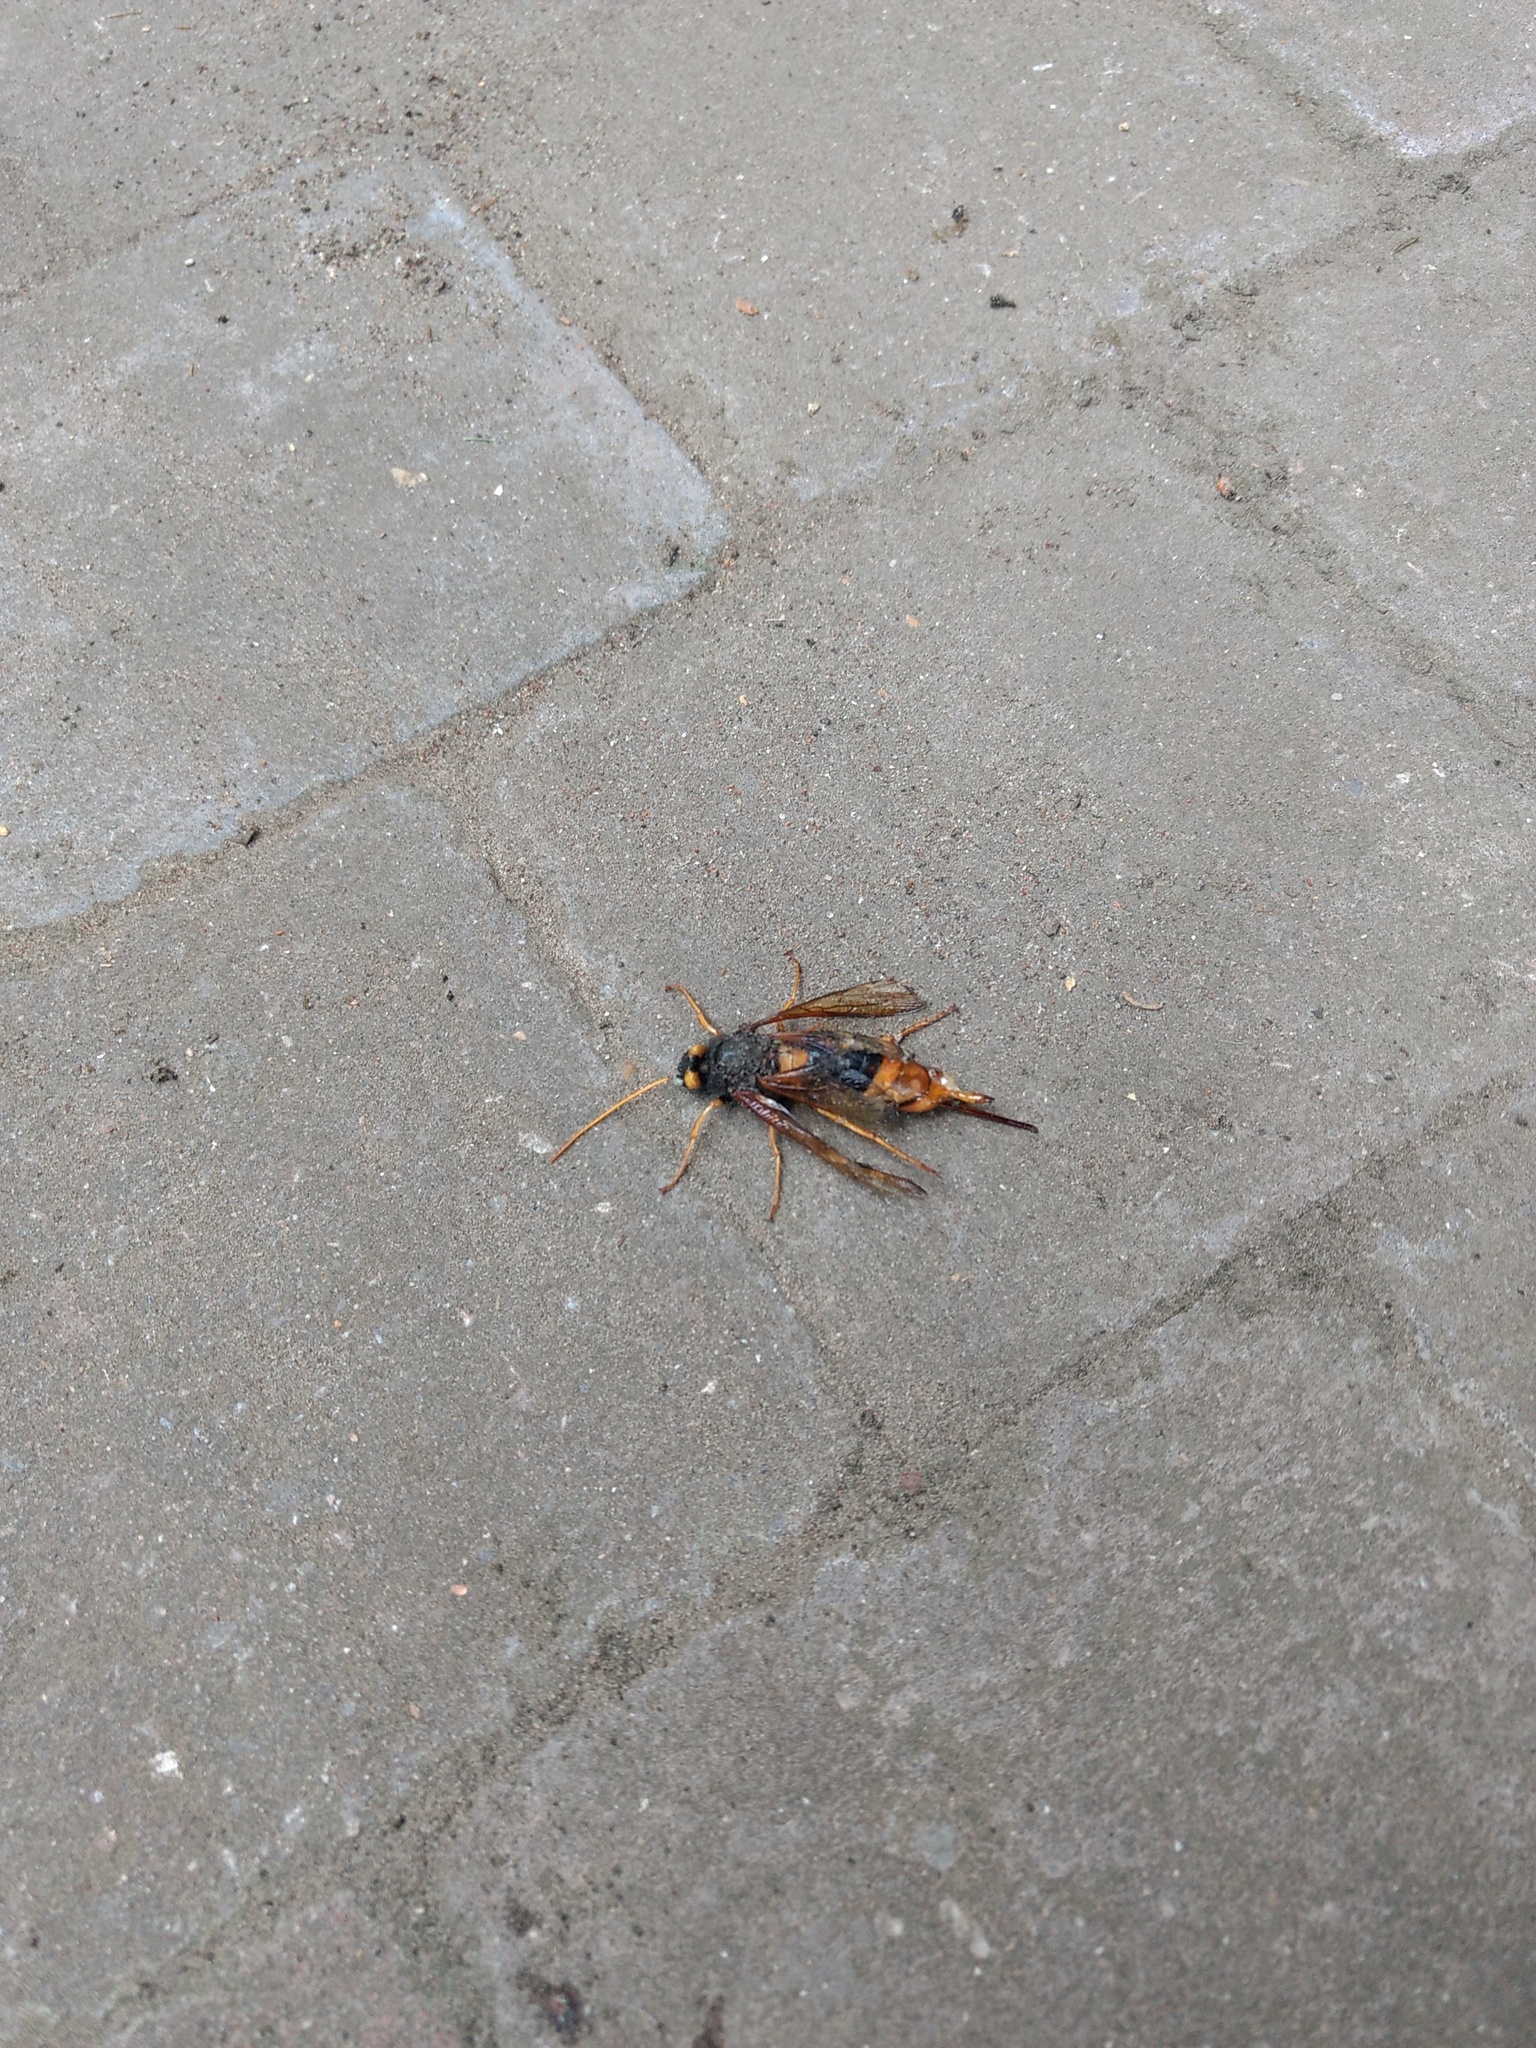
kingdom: Animalia
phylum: Arthropoda
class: Insecta
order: Hymenoptera
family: Siricidae
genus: Urocerus
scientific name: Urocerus gigas
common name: Giant woodwasp
